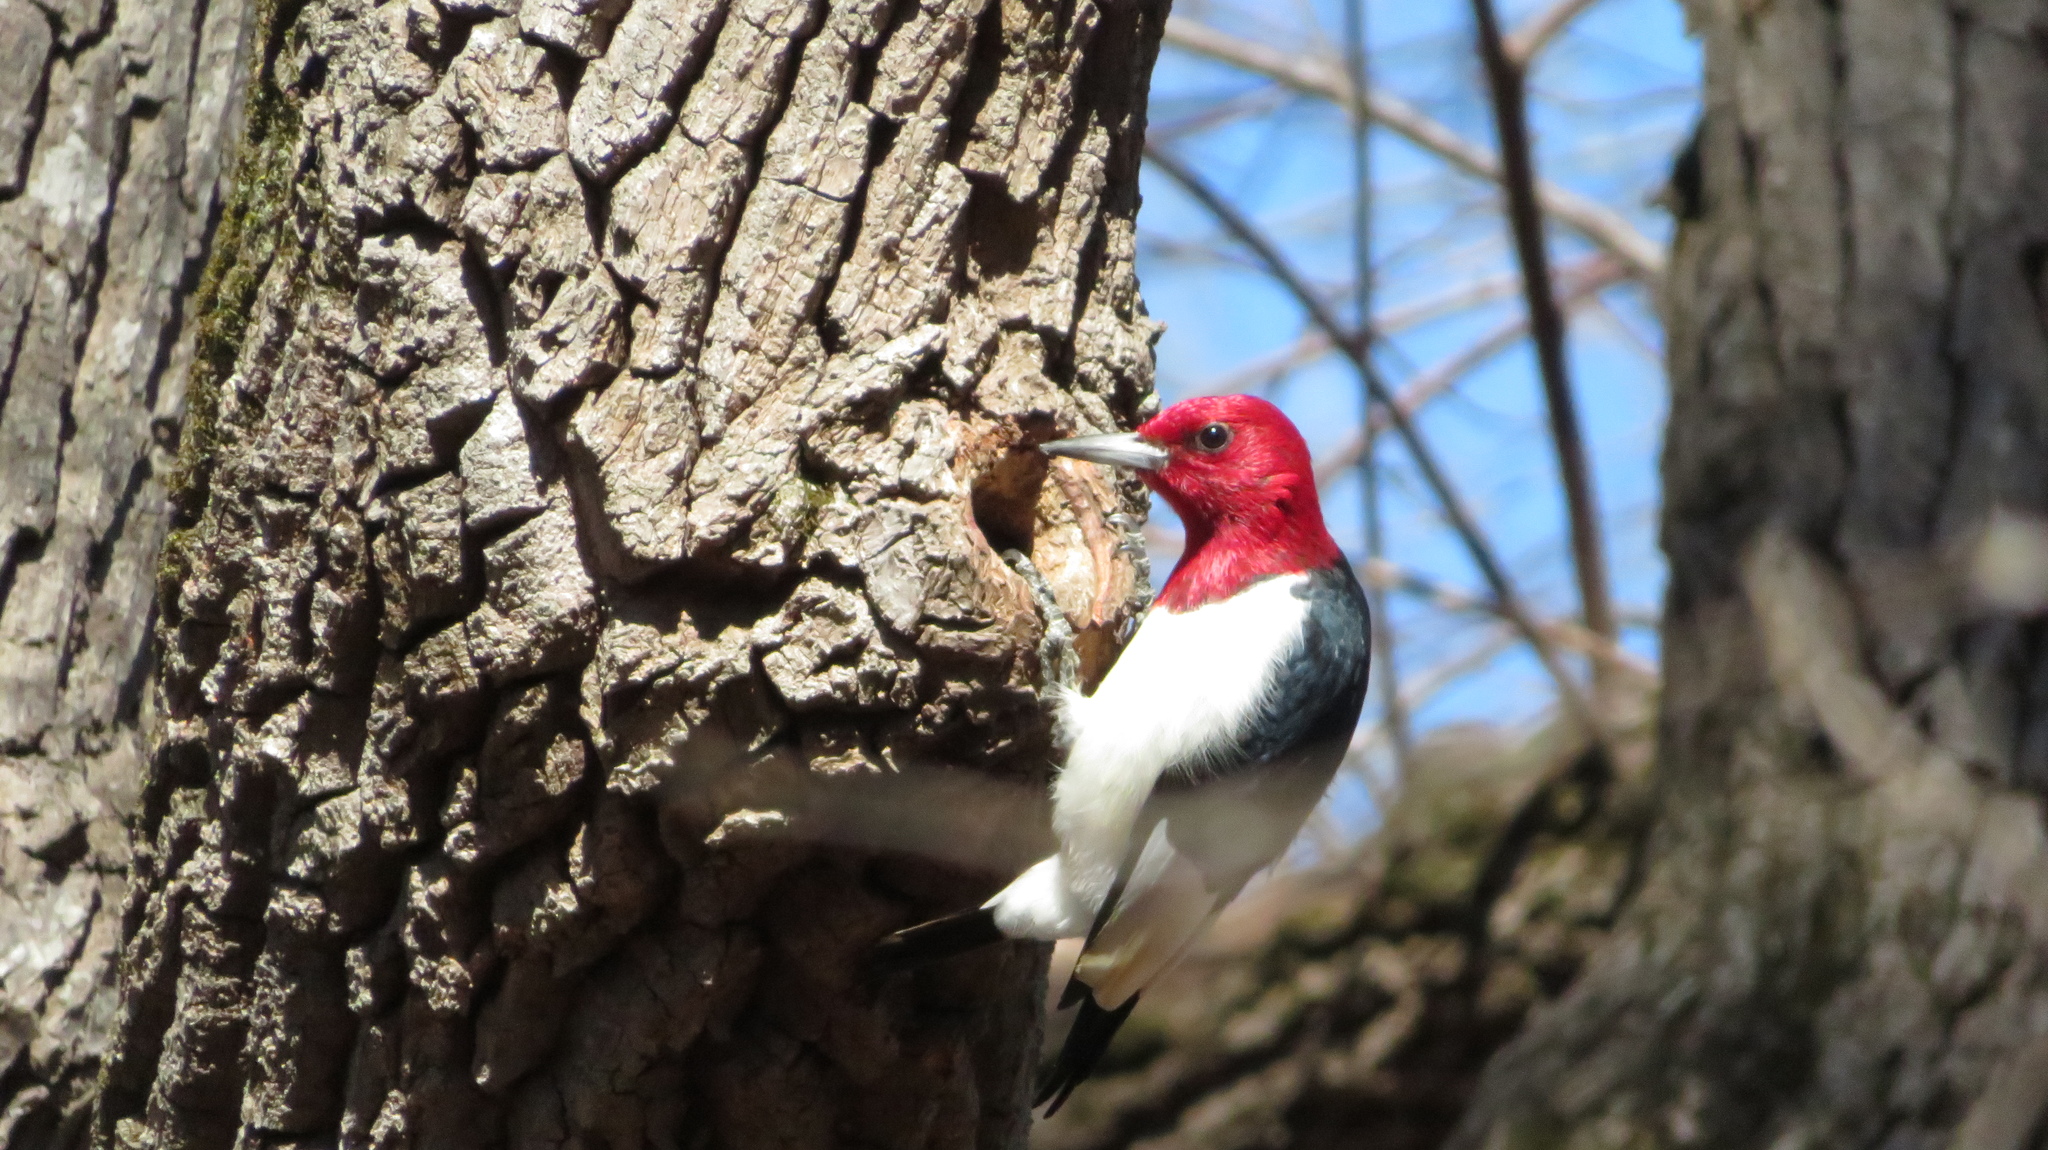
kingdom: Animalia
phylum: Chordata
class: Aves
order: Piciformes
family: Picidae
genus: Melanerpes
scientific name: Melanerpes erythrocephalus
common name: Red-headed woodpecker
